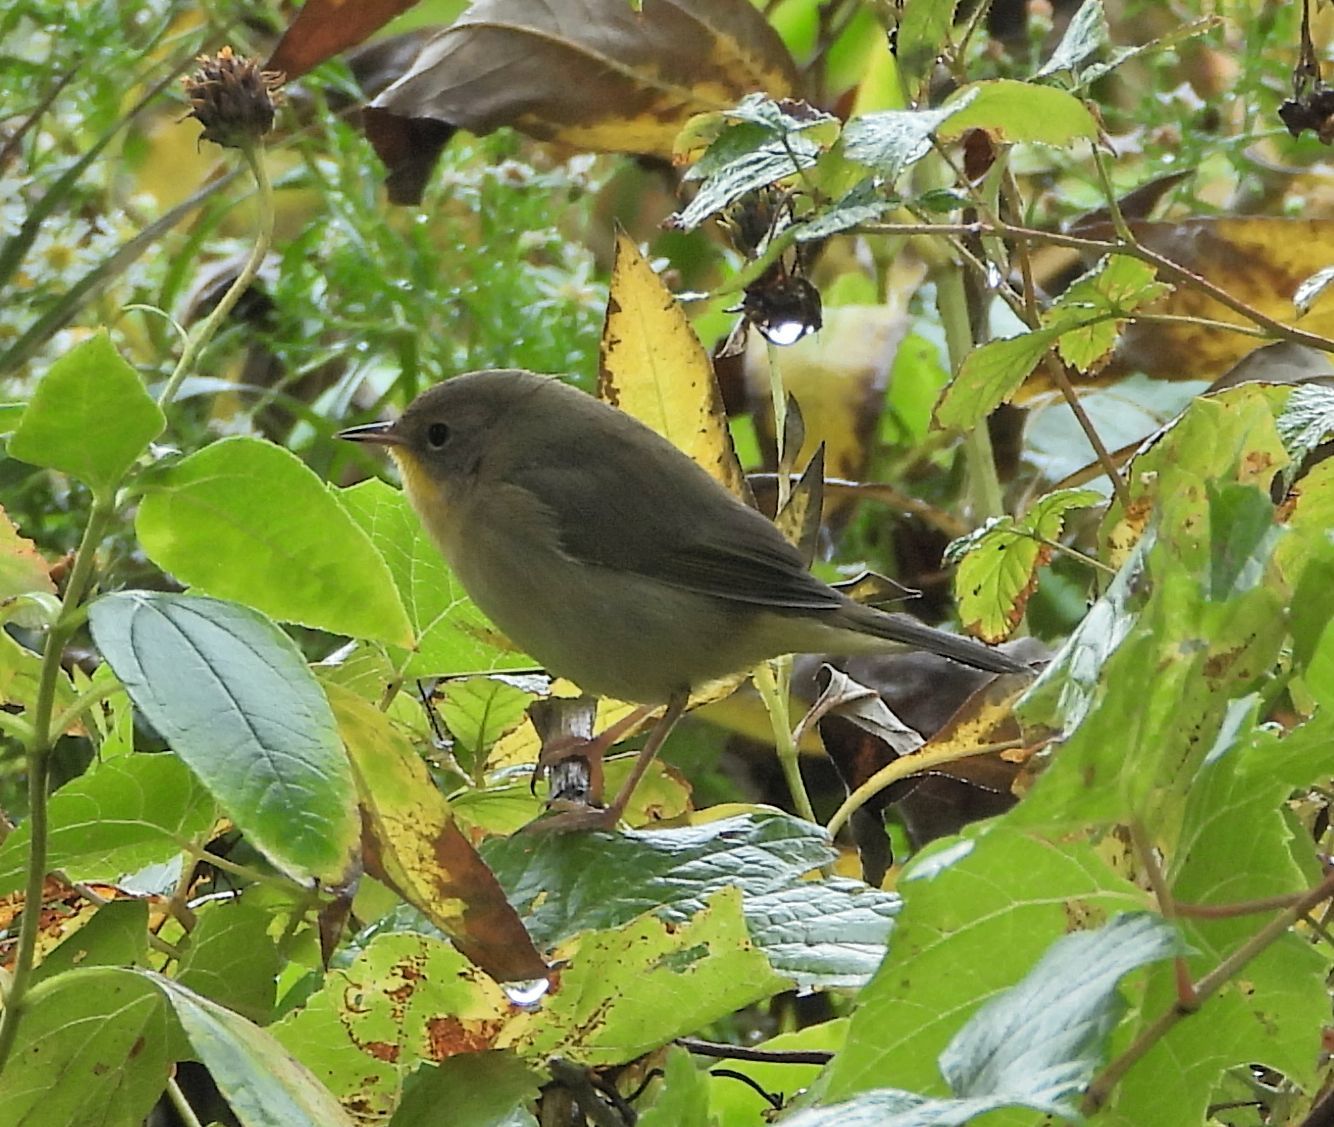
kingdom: Animalia
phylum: Chordata
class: Aves
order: Passeriformes
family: Parulidae
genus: Geothlypis
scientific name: Geothlypis trichas
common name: Common yellowthroat
